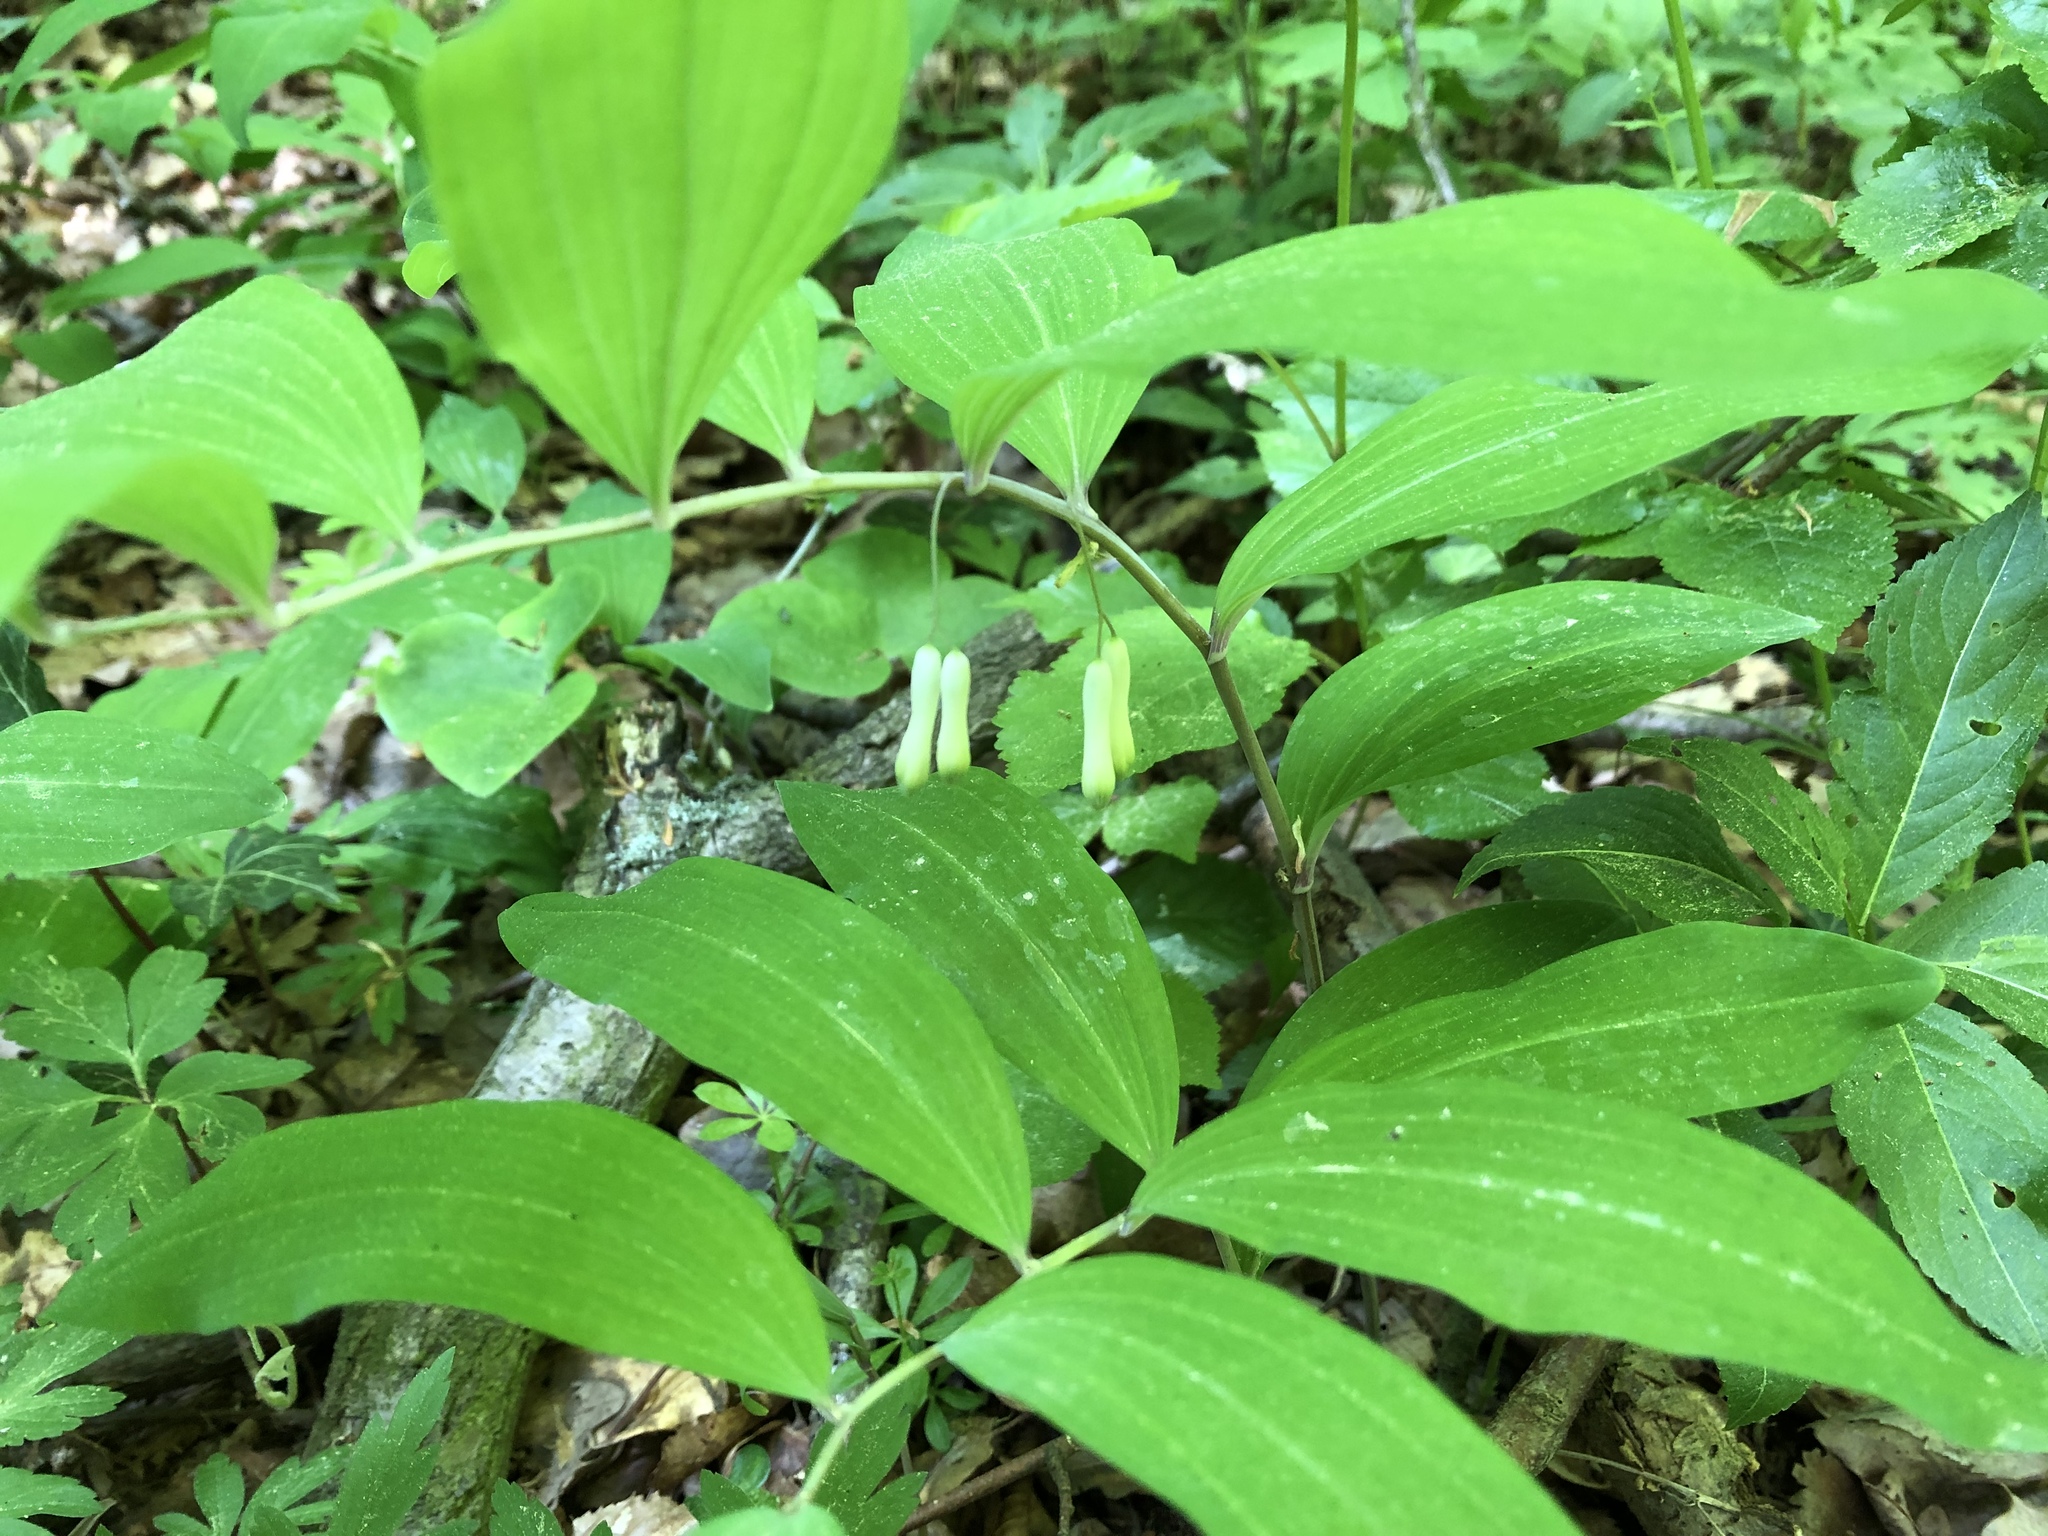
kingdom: Plantae
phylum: Tracheophyta
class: Liliopsida
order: Asparagales
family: Asparagaceae
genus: Polygonatum
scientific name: Polygonatum multiflorum
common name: Solomon's-seal
